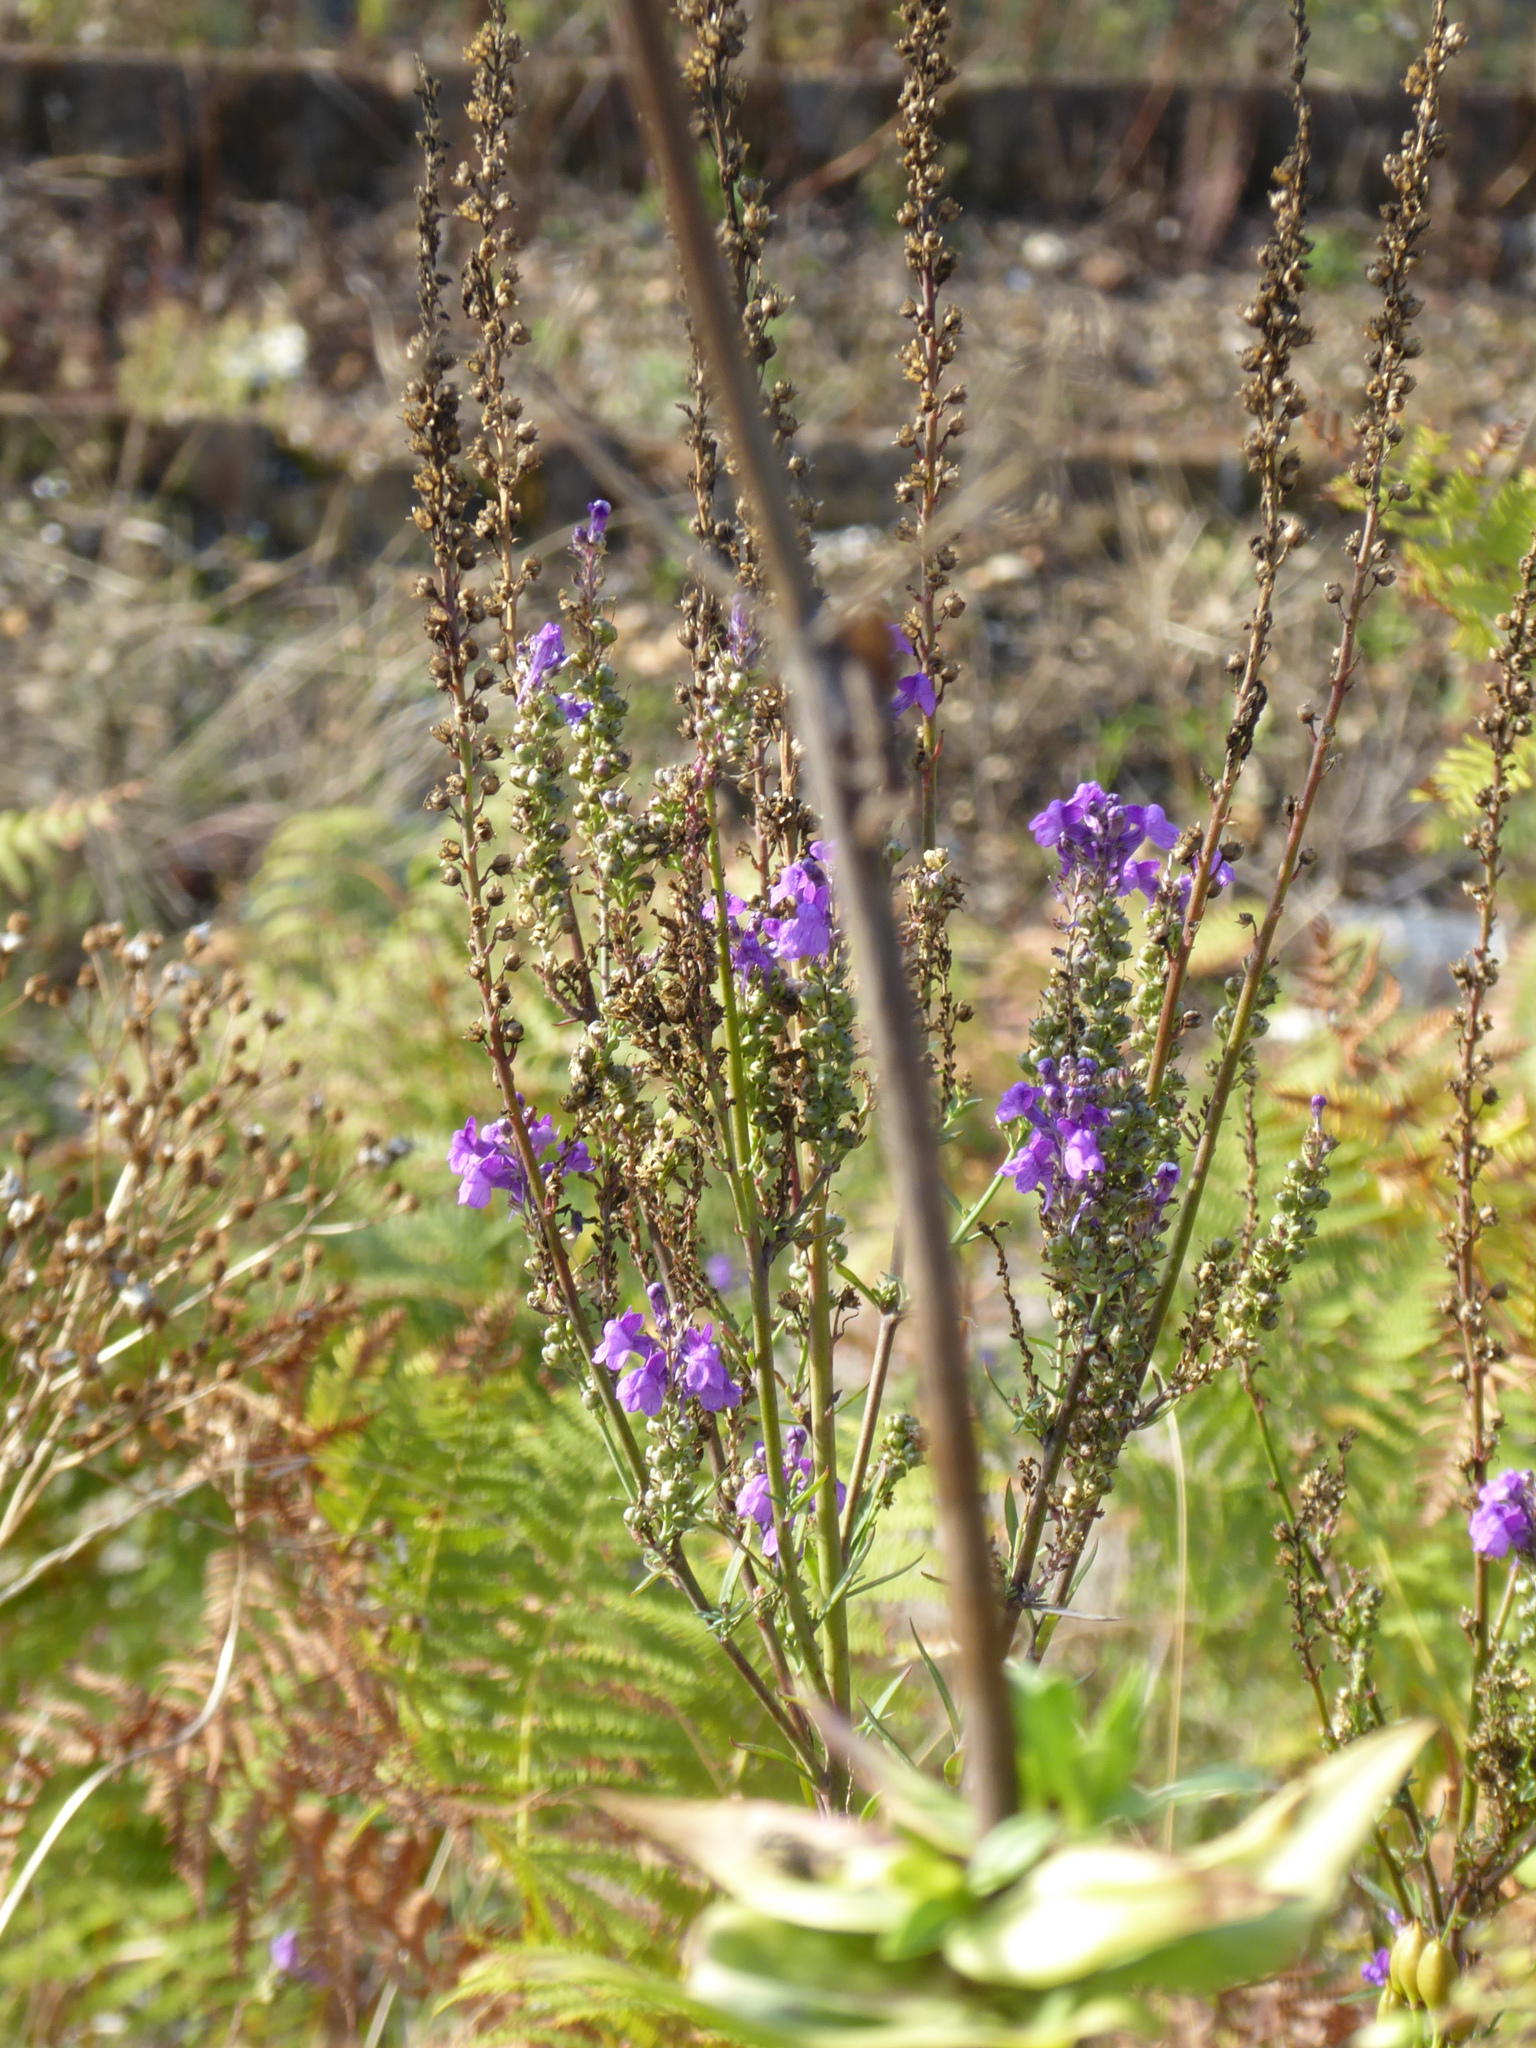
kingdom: Plantae
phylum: Tracheophyta
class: Magnoliopsida
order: Lamiales
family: Plantaginaceae
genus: Linaria
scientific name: Linaria purpurea
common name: Purple toadflax
